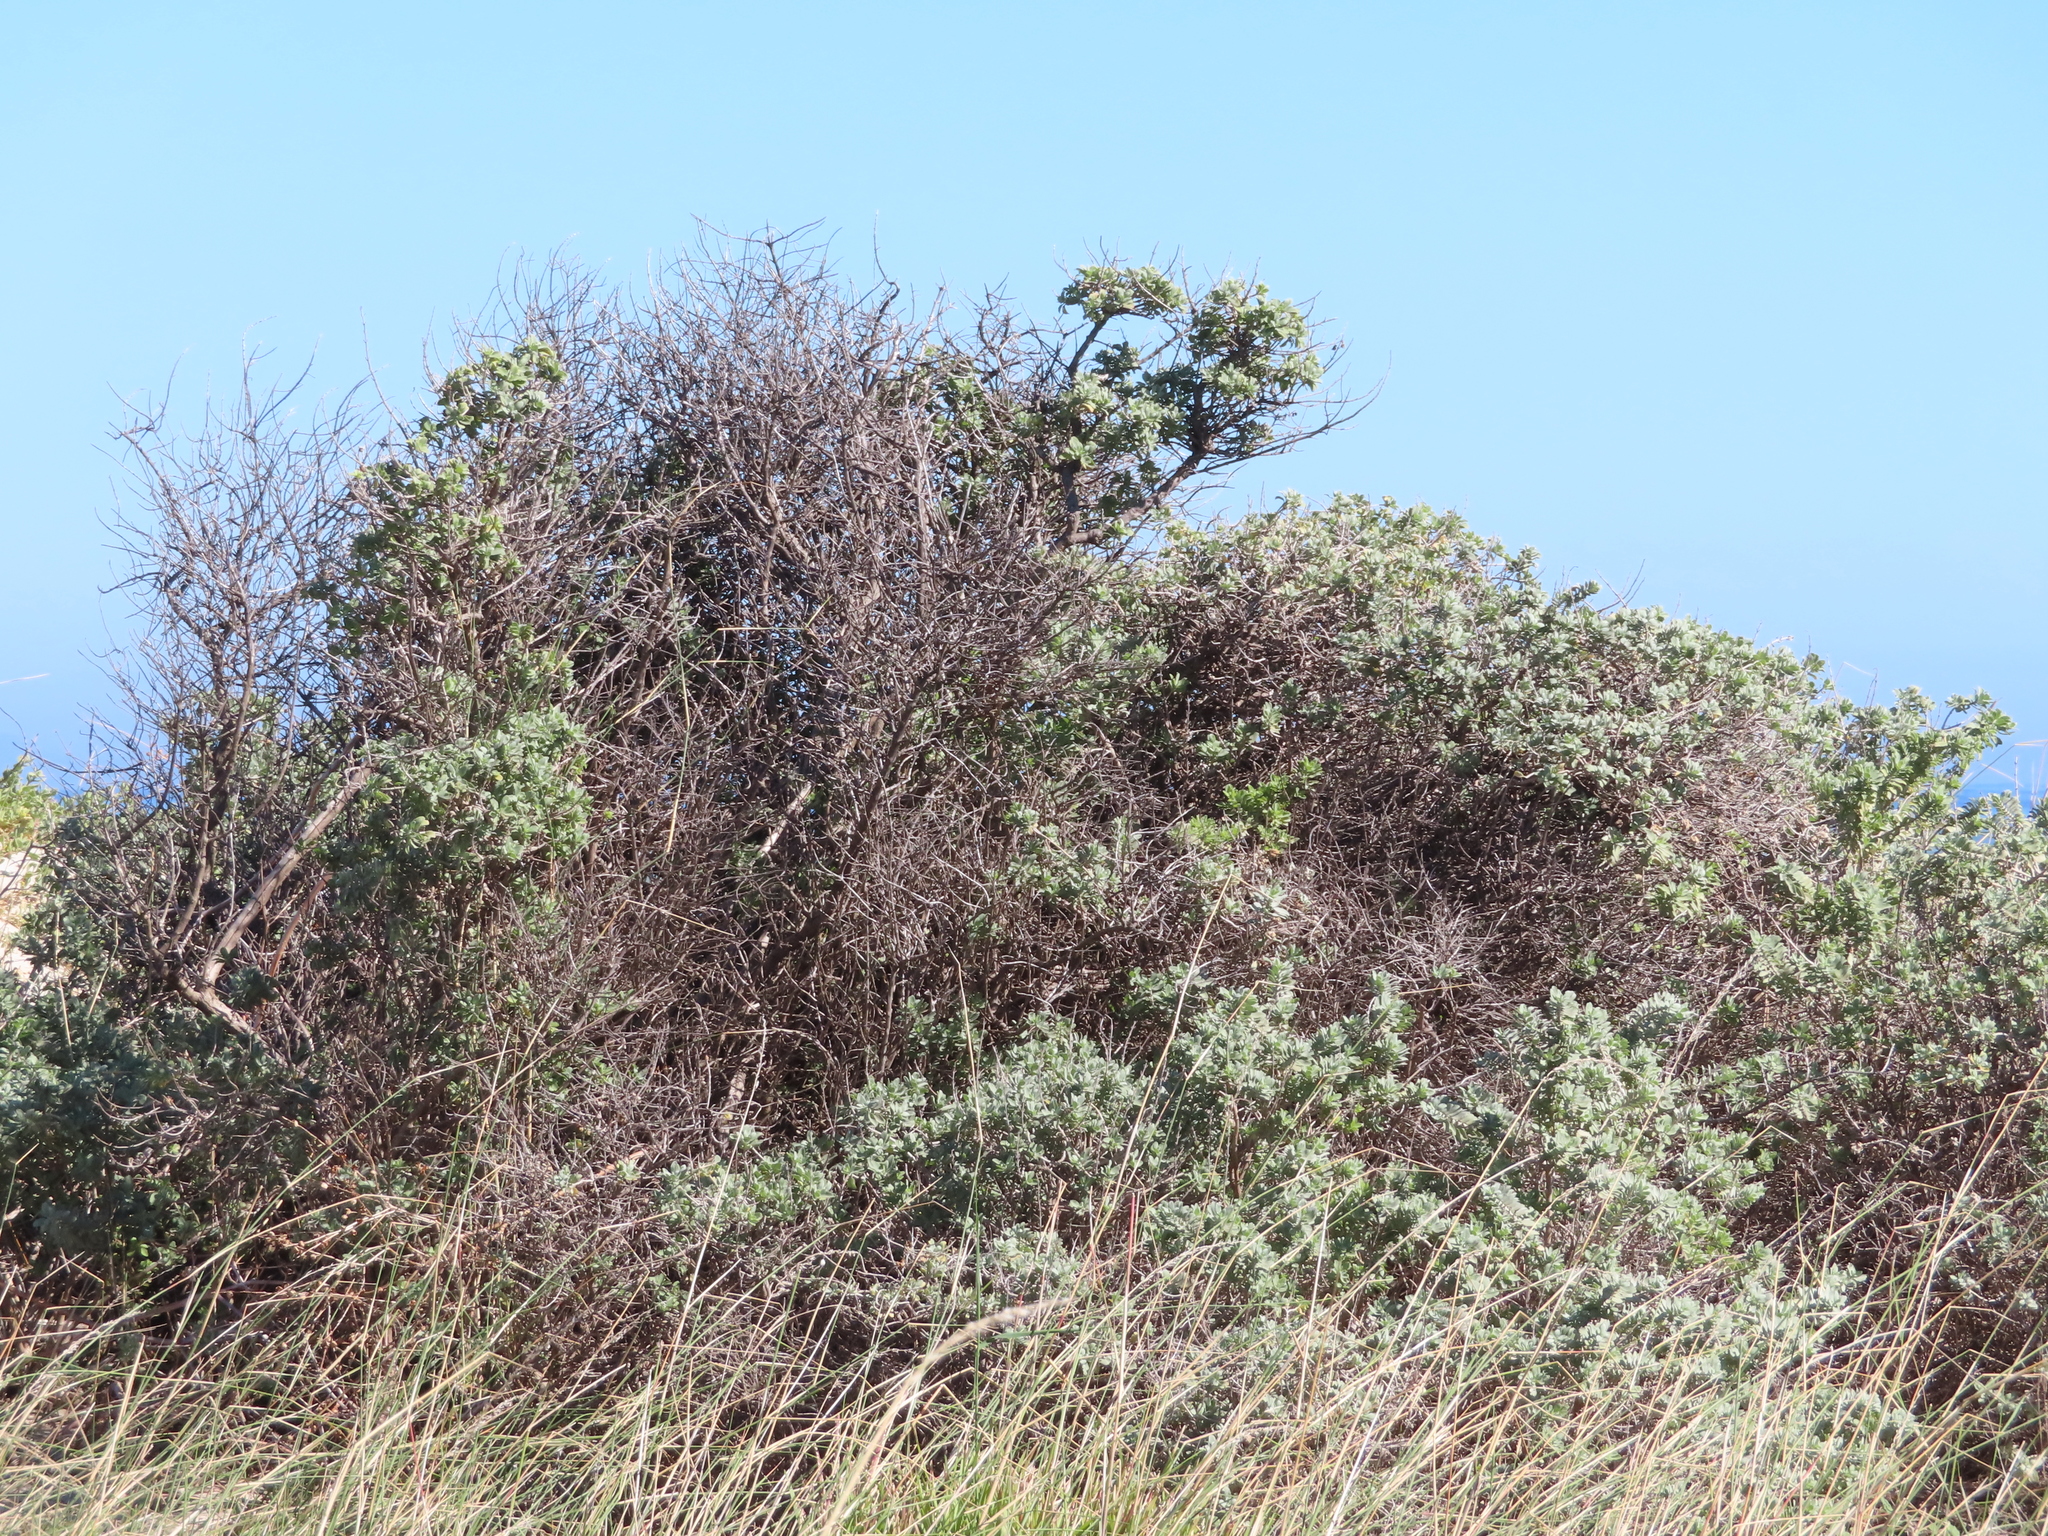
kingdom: Plantae
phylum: Tracheophyta
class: Magnoliopsida
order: Lamiales
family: Lamiaceae
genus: Salvia
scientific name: Salvia aurea
